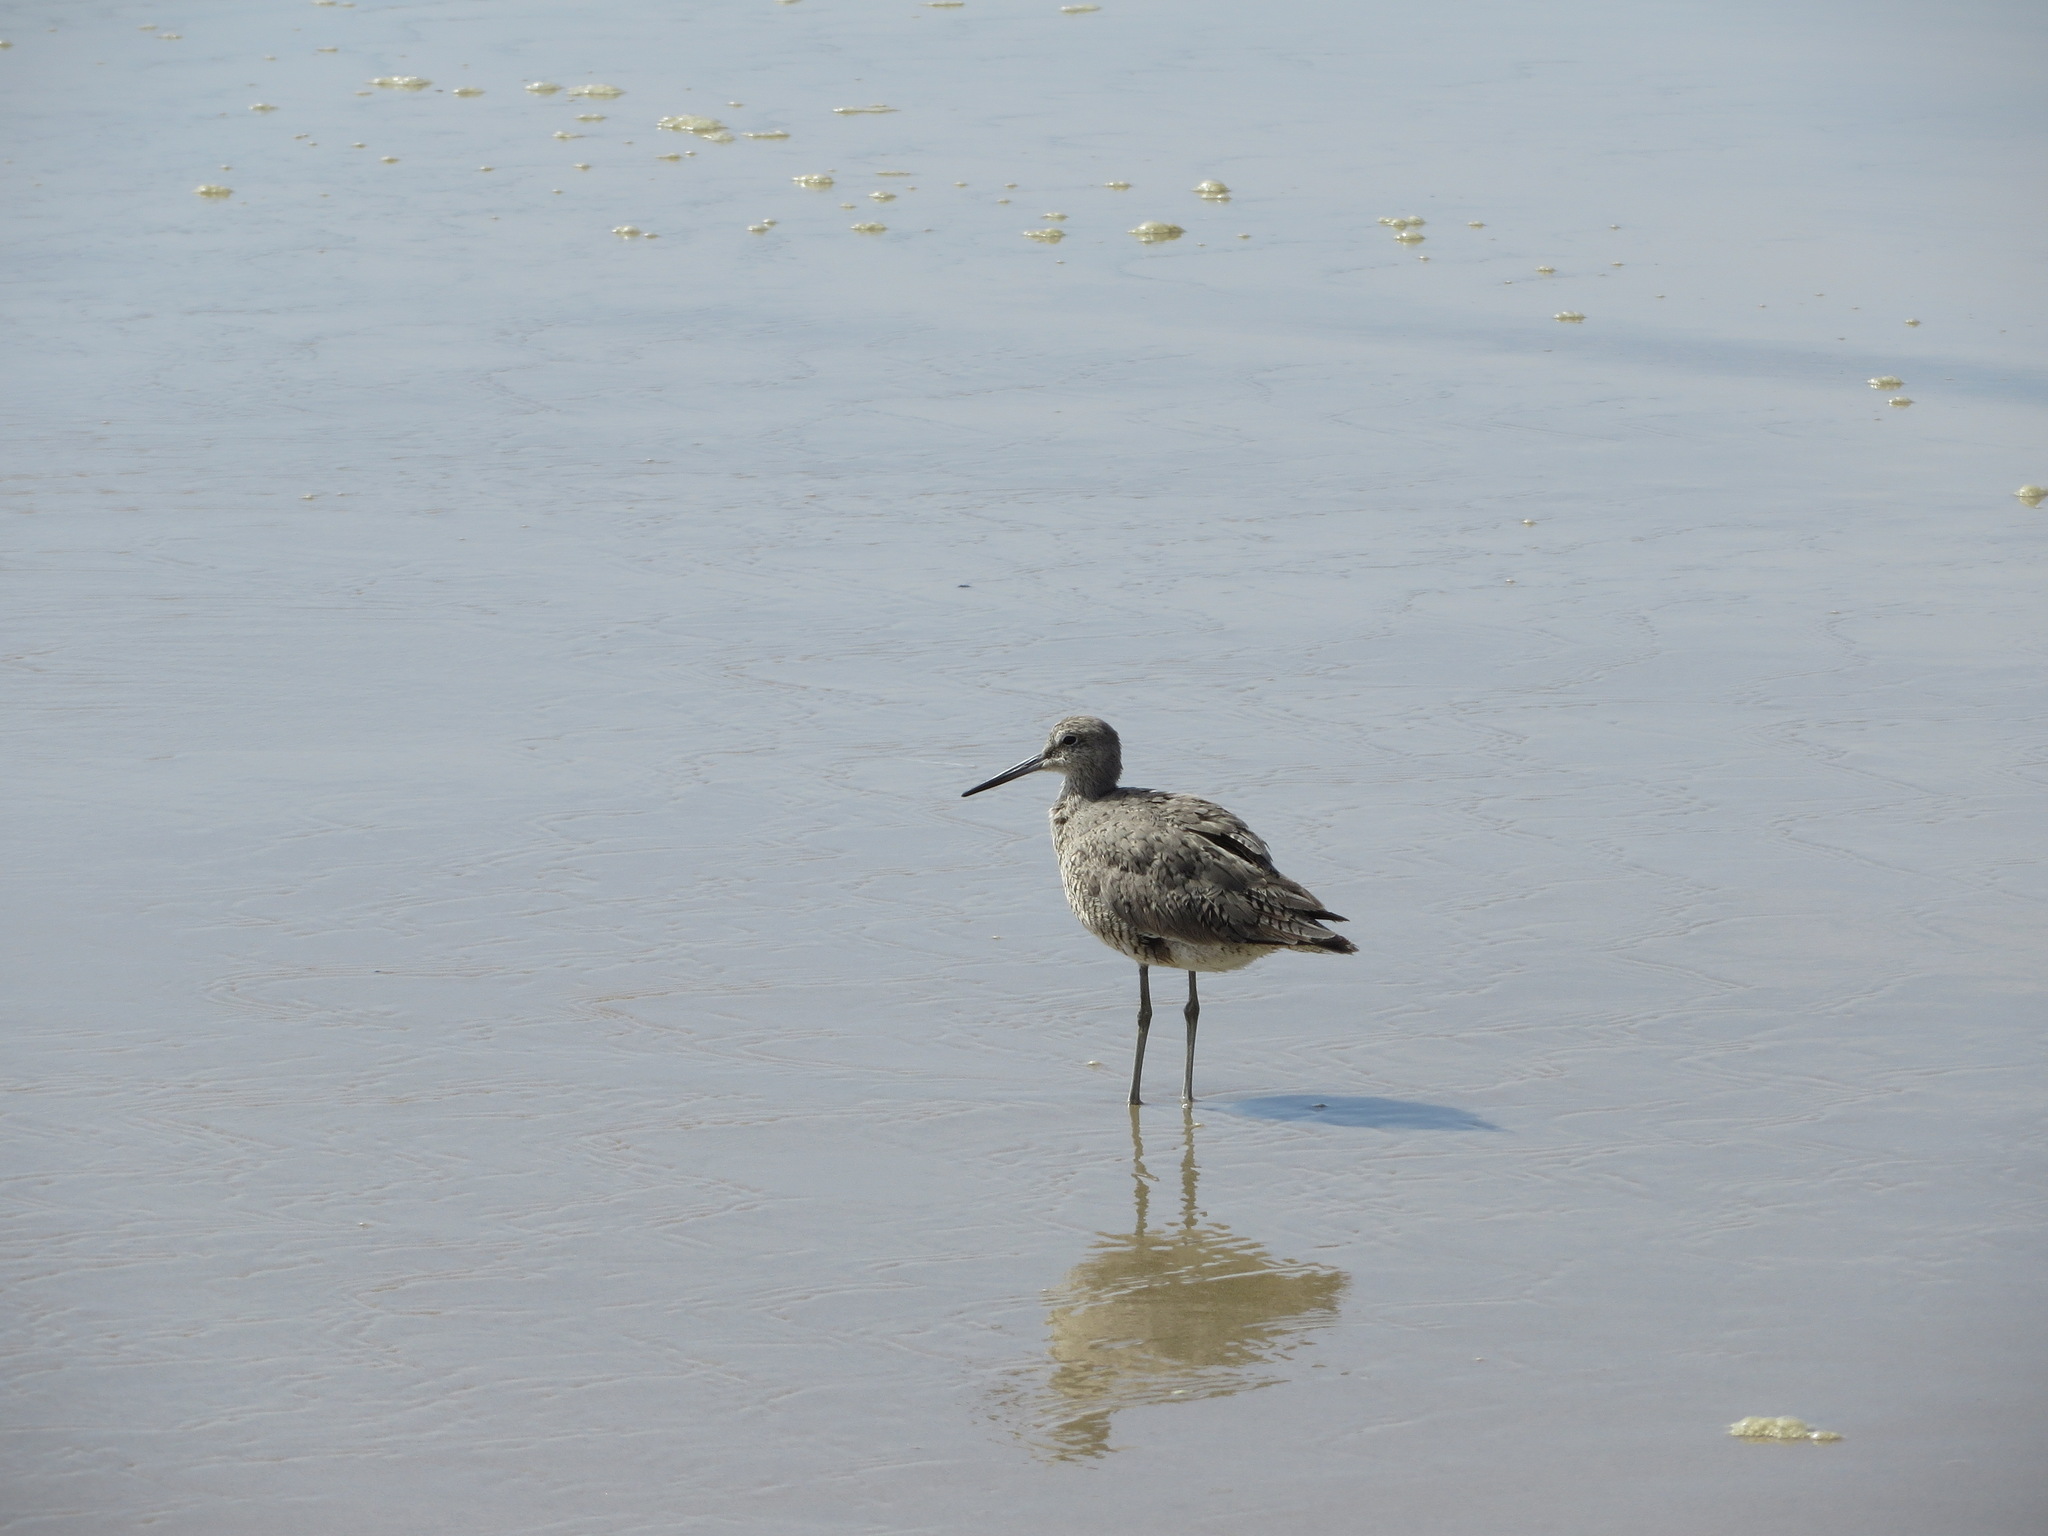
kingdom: Animalia
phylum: Chordata
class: Aves
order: Charadriiformes
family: Scolopacidae
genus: Tringa
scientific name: Tringa semipalmata
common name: Willet
